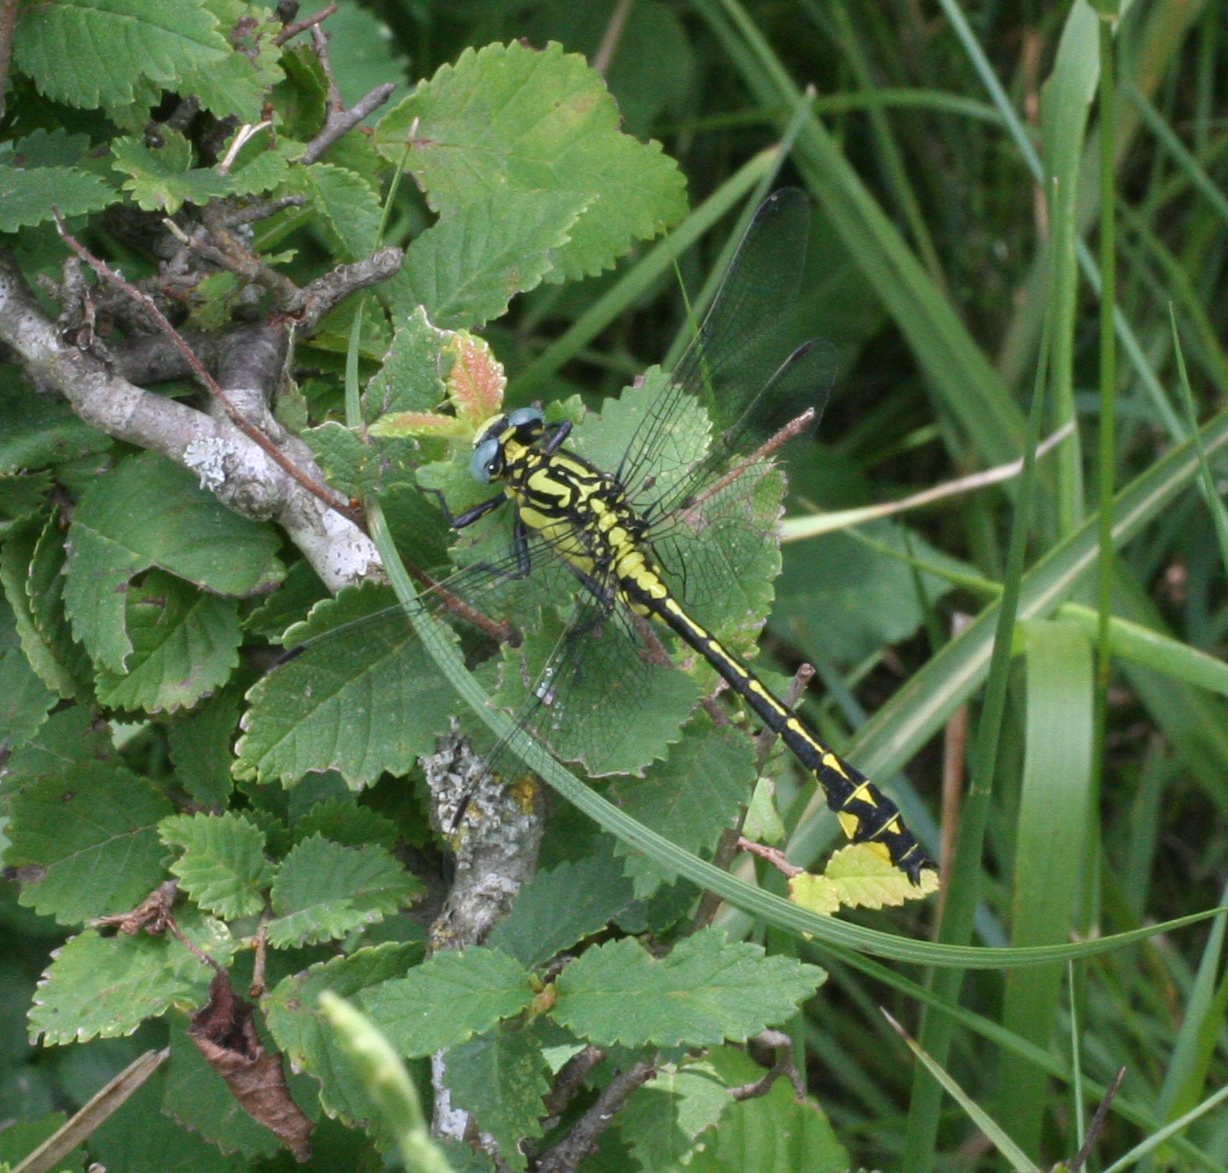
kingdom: Animalia
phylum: Arthropoda
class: Insecta
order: Odonata
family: Gomphidae
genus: Gomphus
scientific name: Gomphus schneiderii
